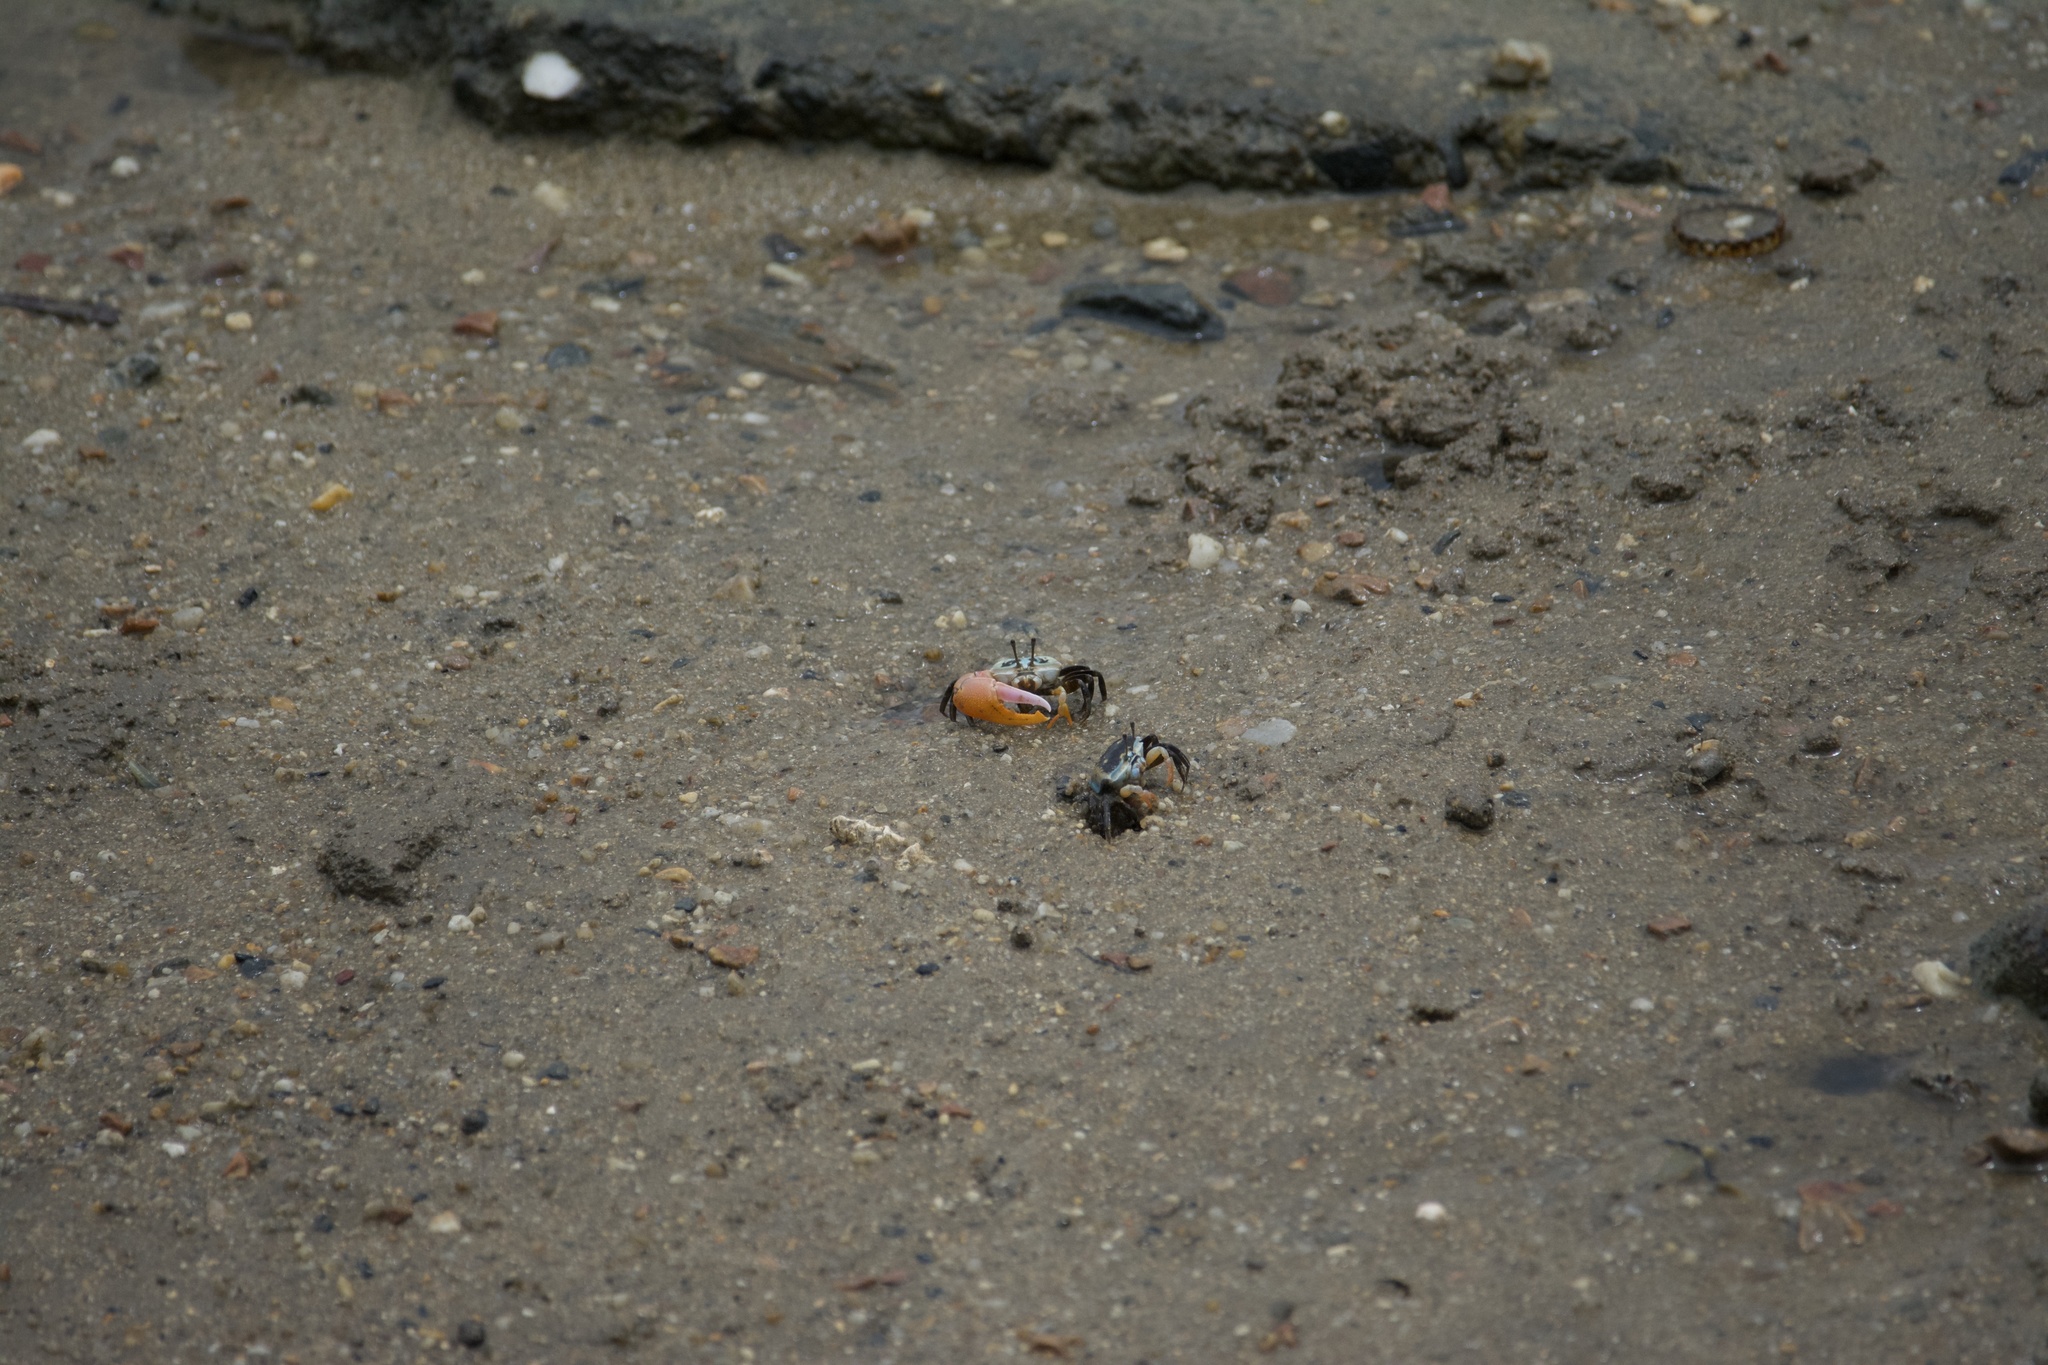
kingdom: Animalia
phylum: Arthropoda
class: Malacostraca
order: Decapoda
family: Ocypodidae
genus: Gelasimus
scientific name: Gelasimus vomeris
